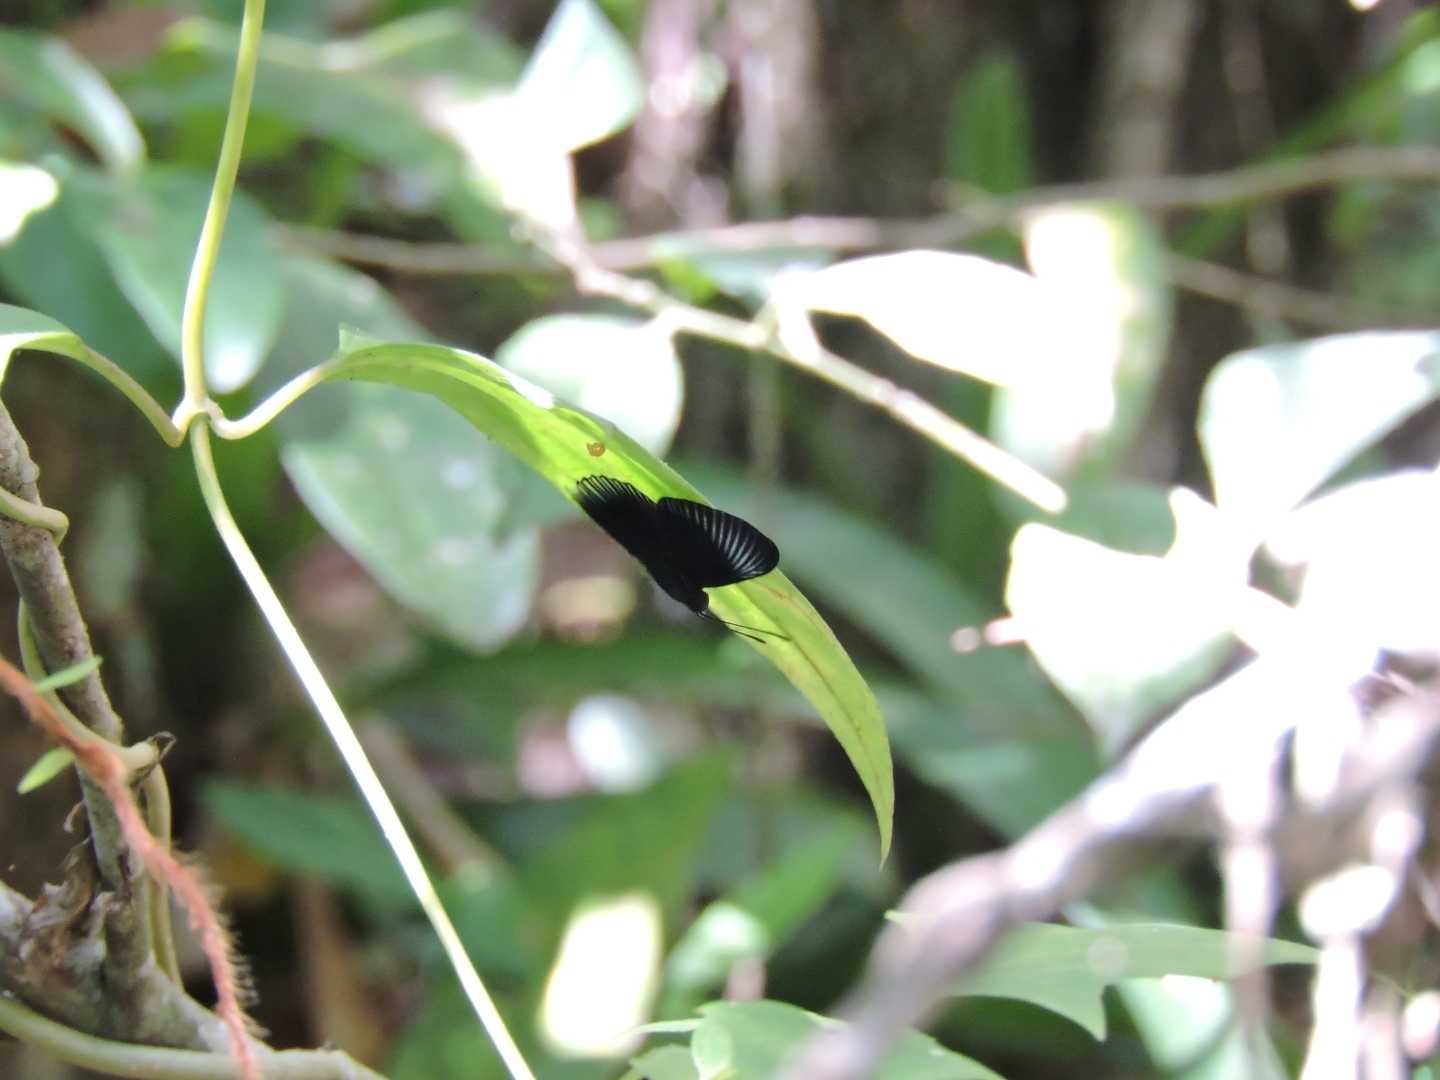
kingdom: Animalia
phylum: Arthropoda
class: Insecta
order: Lepidoptera
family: Riodinidae
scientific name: Riodinidae
